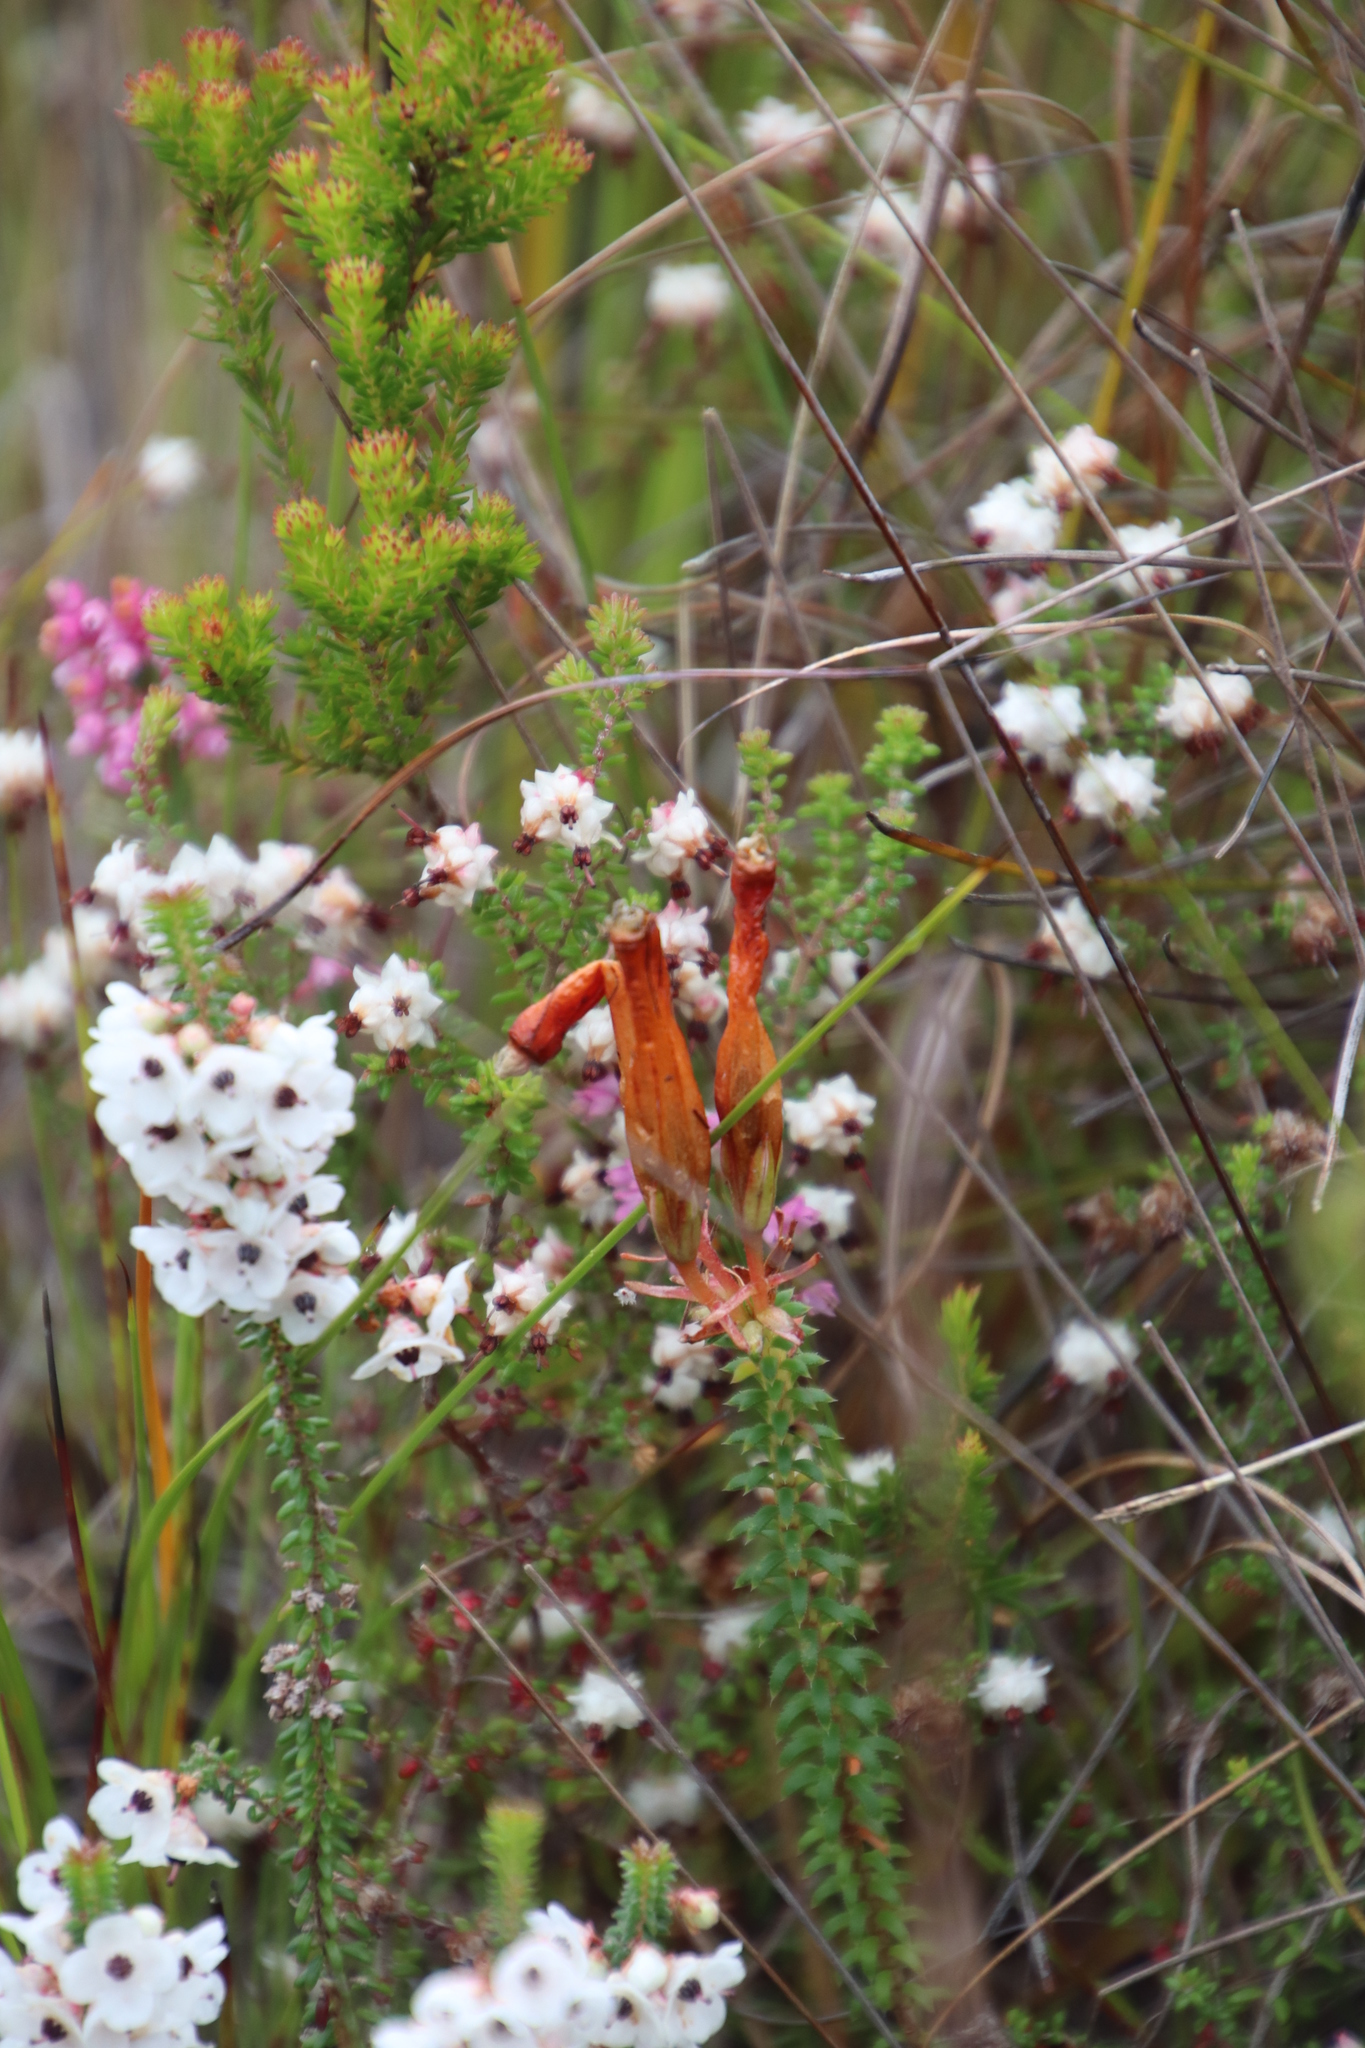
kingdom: Plantae
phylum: Tracheophyta
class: Magnoliopsida
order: Ericales
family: Ericaceae
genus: Erica
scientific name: Erica aristata
